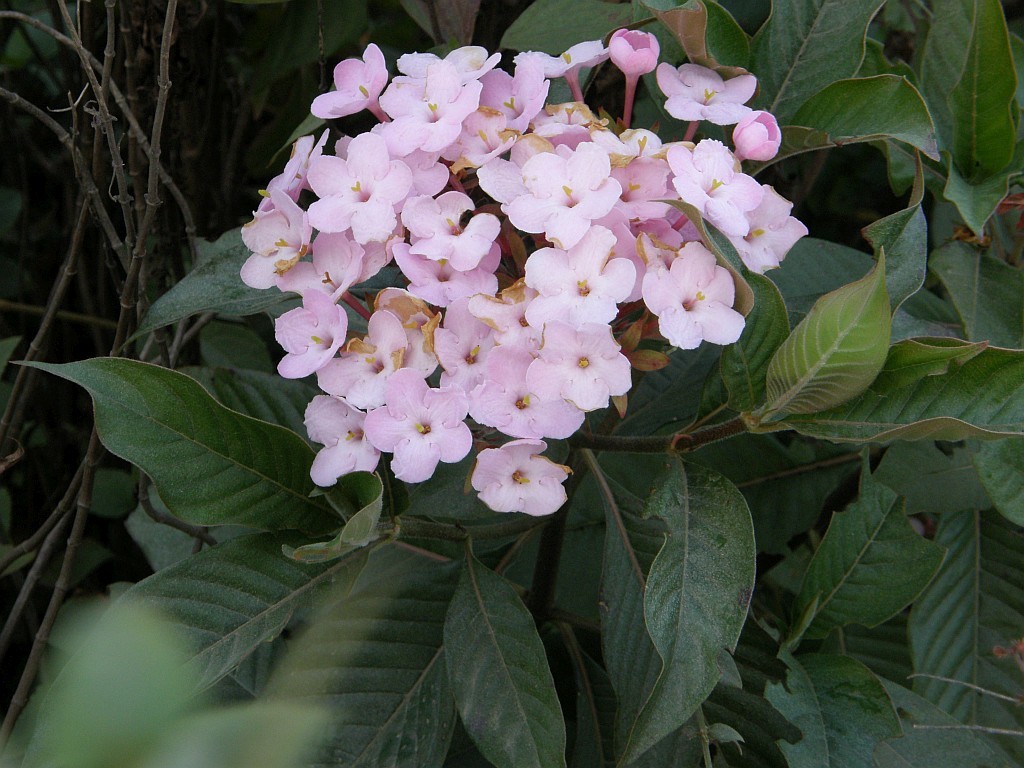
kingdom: Plantae
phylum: Tracheophyta
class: Magnoliopsida
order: Gentianales
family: Rubiaceae
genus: Luculia
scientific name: Luculia gratissima
